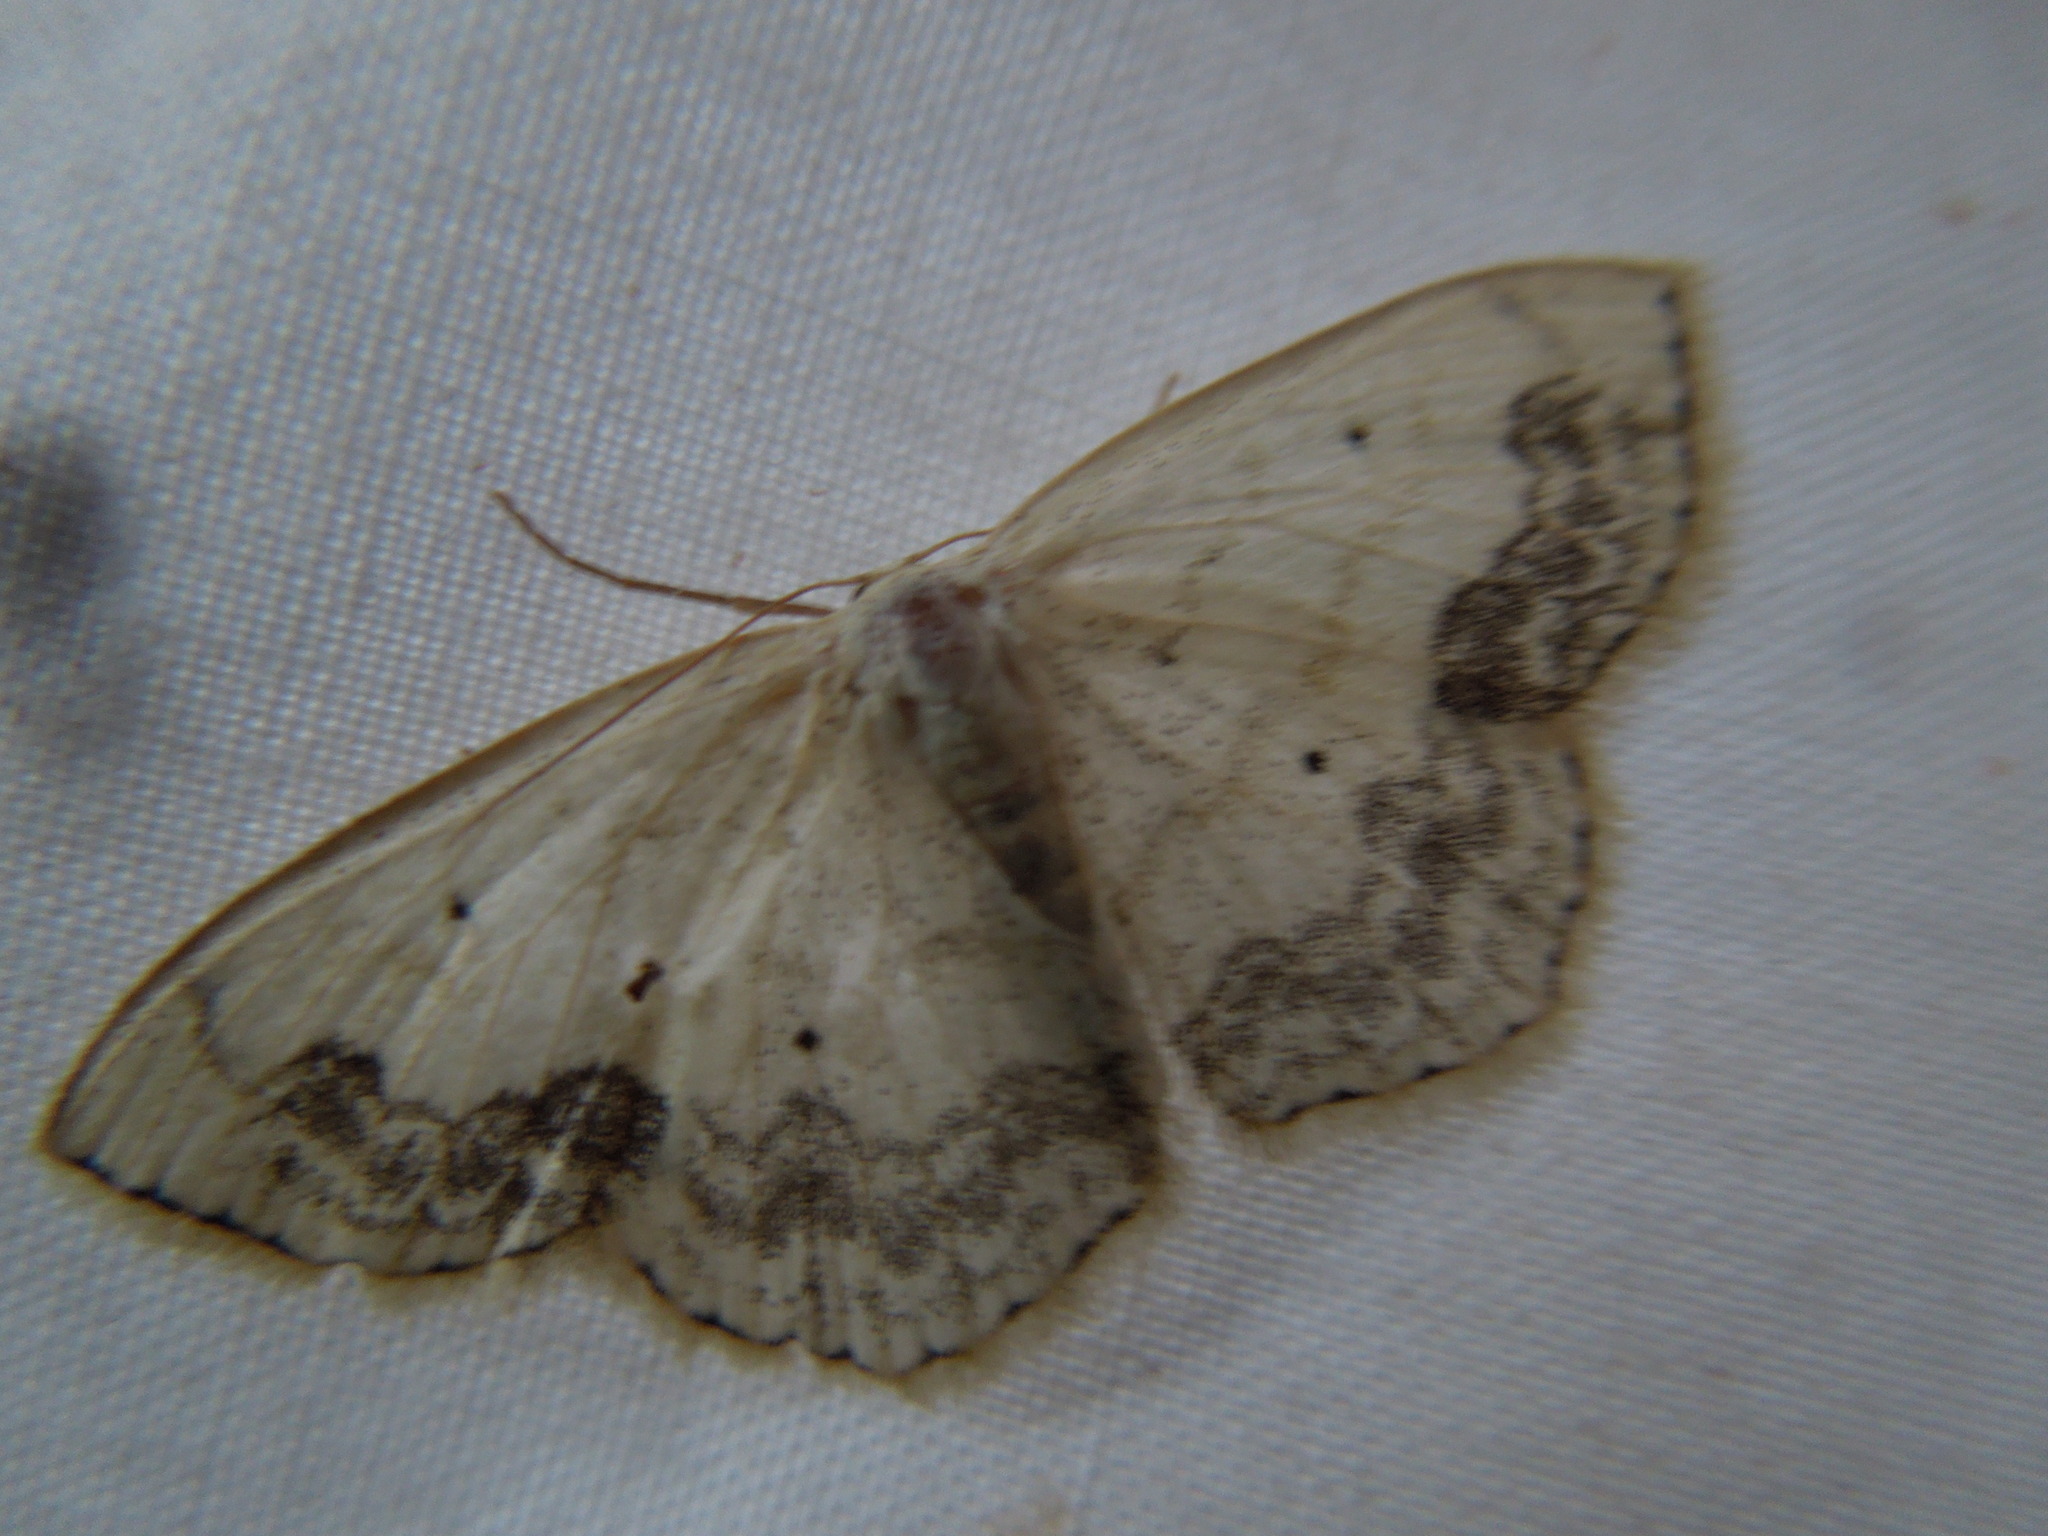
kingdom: Animalia
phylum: Arthropoda
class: Insecta
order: Lepidoptera
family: Geometridae
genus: Scopula
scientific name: Scopula limboundata
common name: Large lace border
